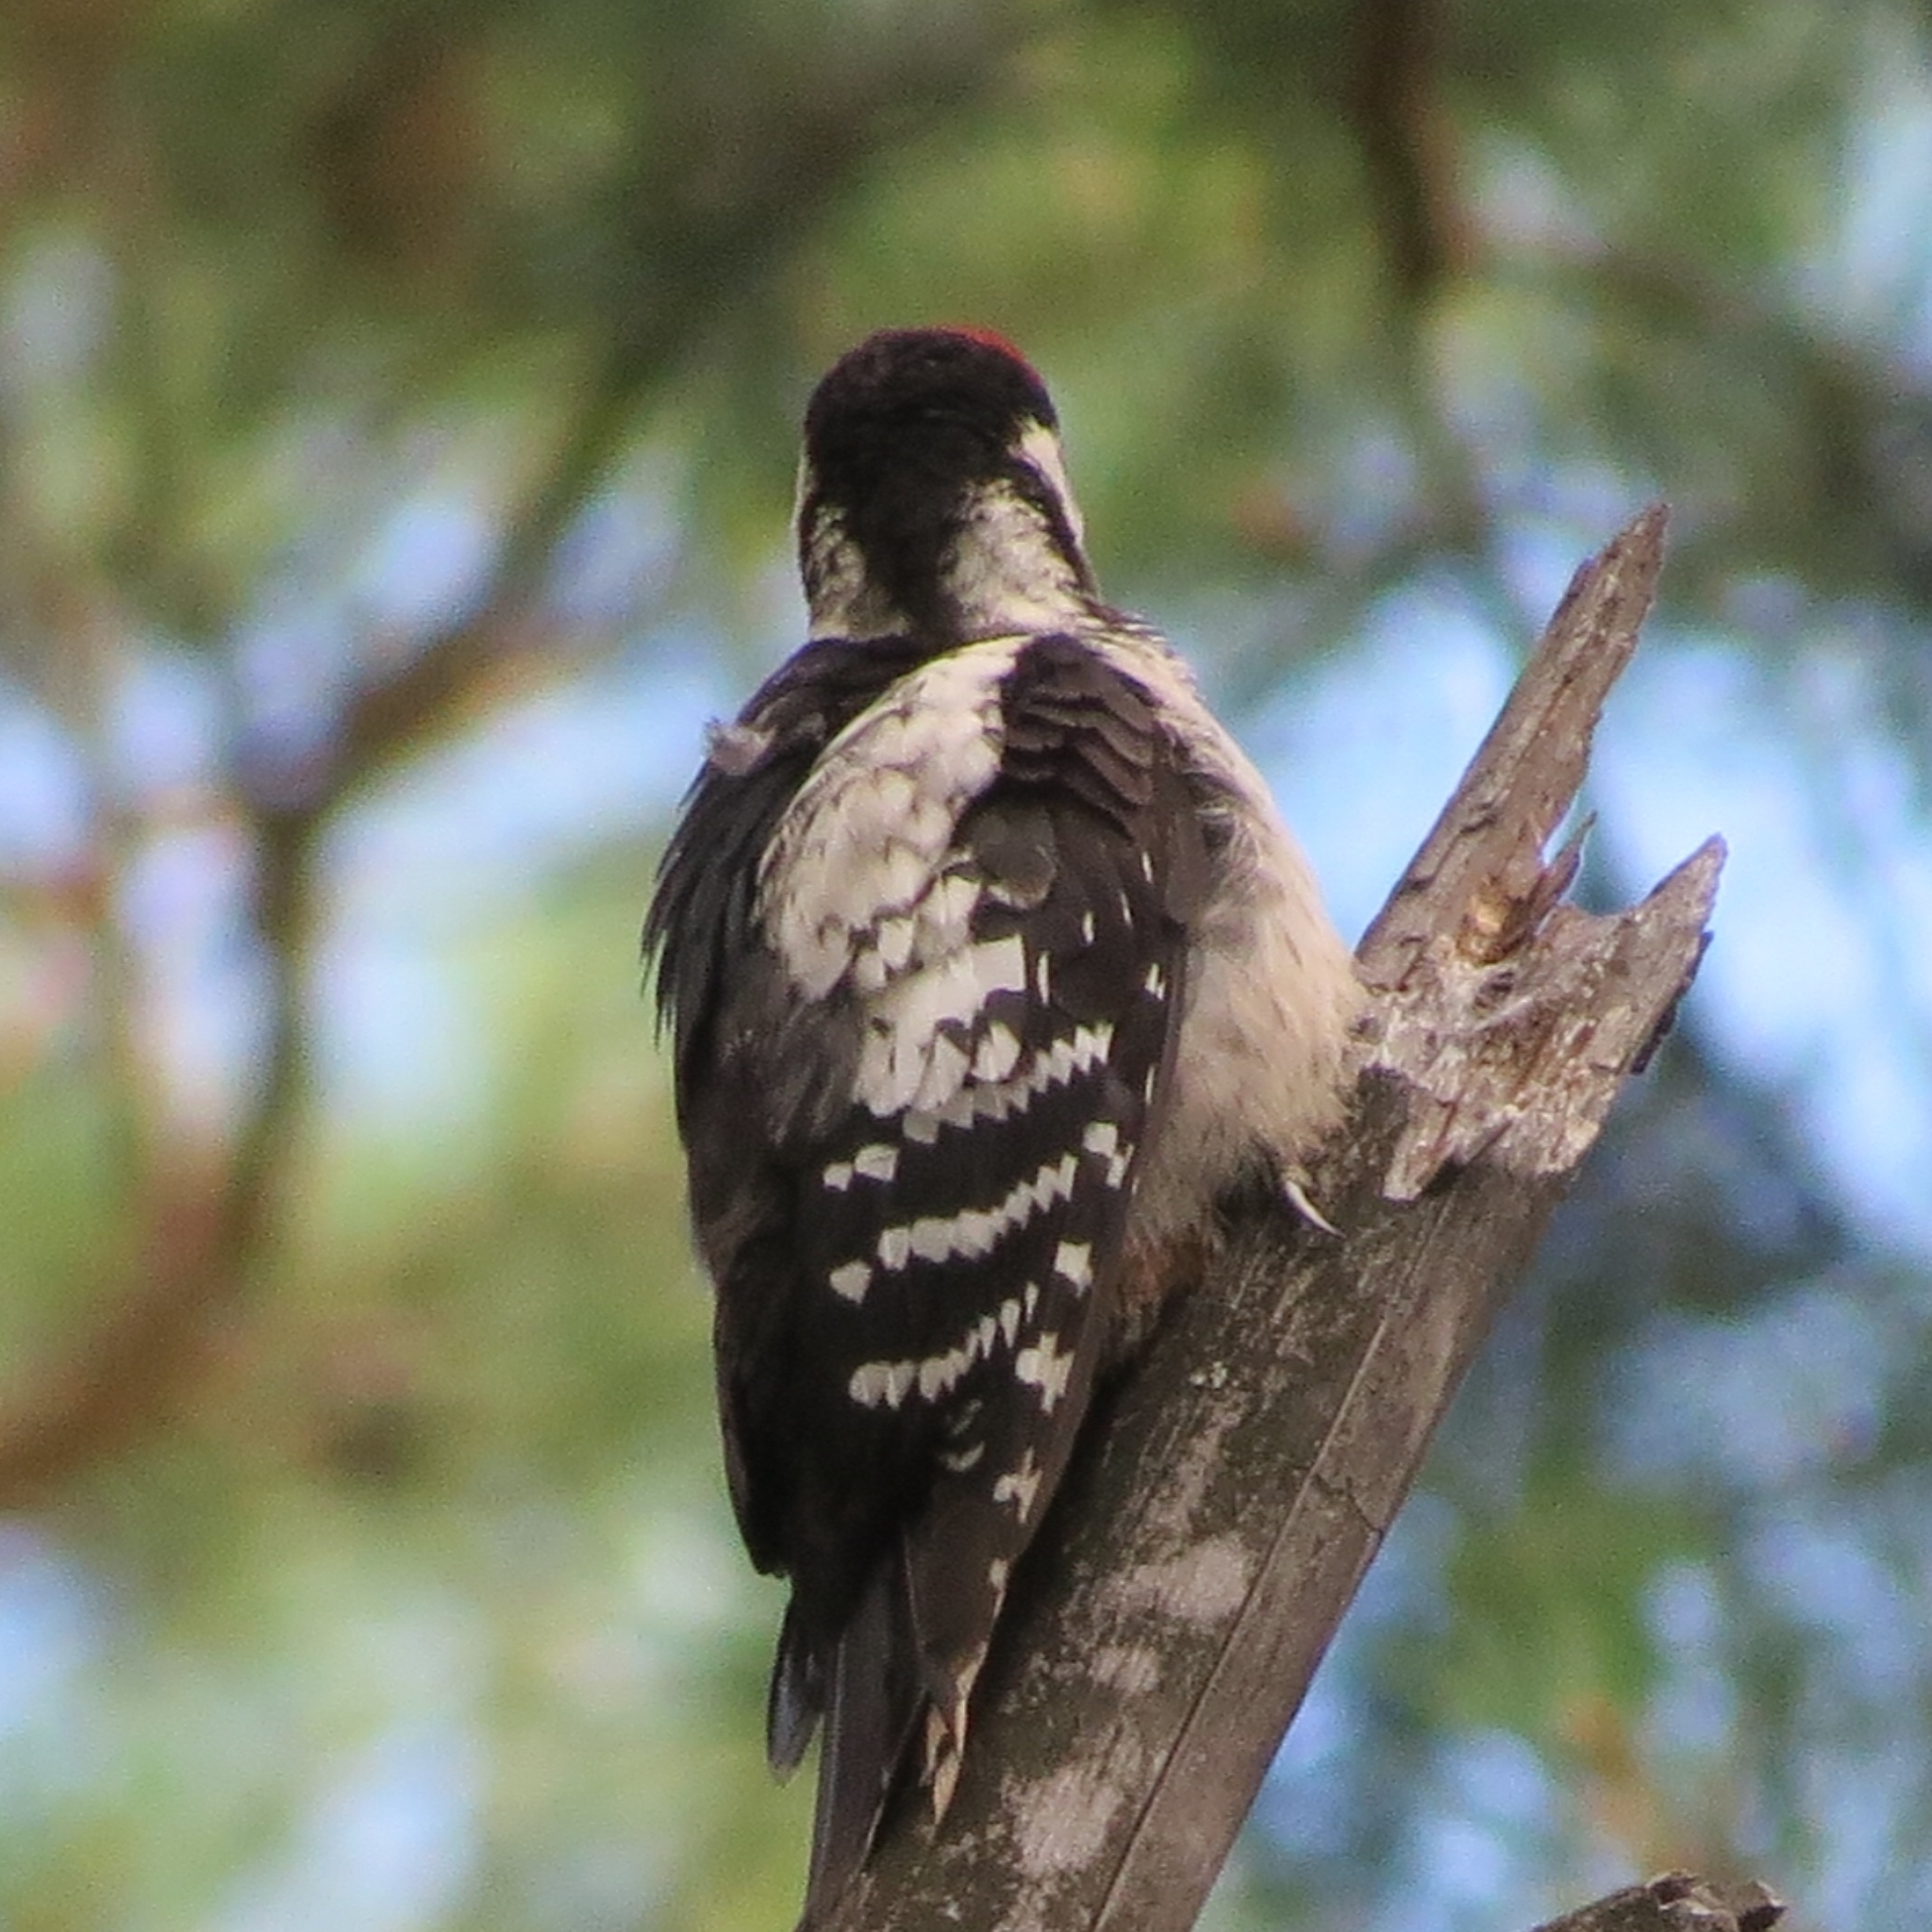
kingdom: Animalia
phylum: Chordata
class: Aves
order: Piciformes
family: Picidae
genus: Dendrocopos
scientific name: Dendrocopos major
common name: Great spotted woodpecker
